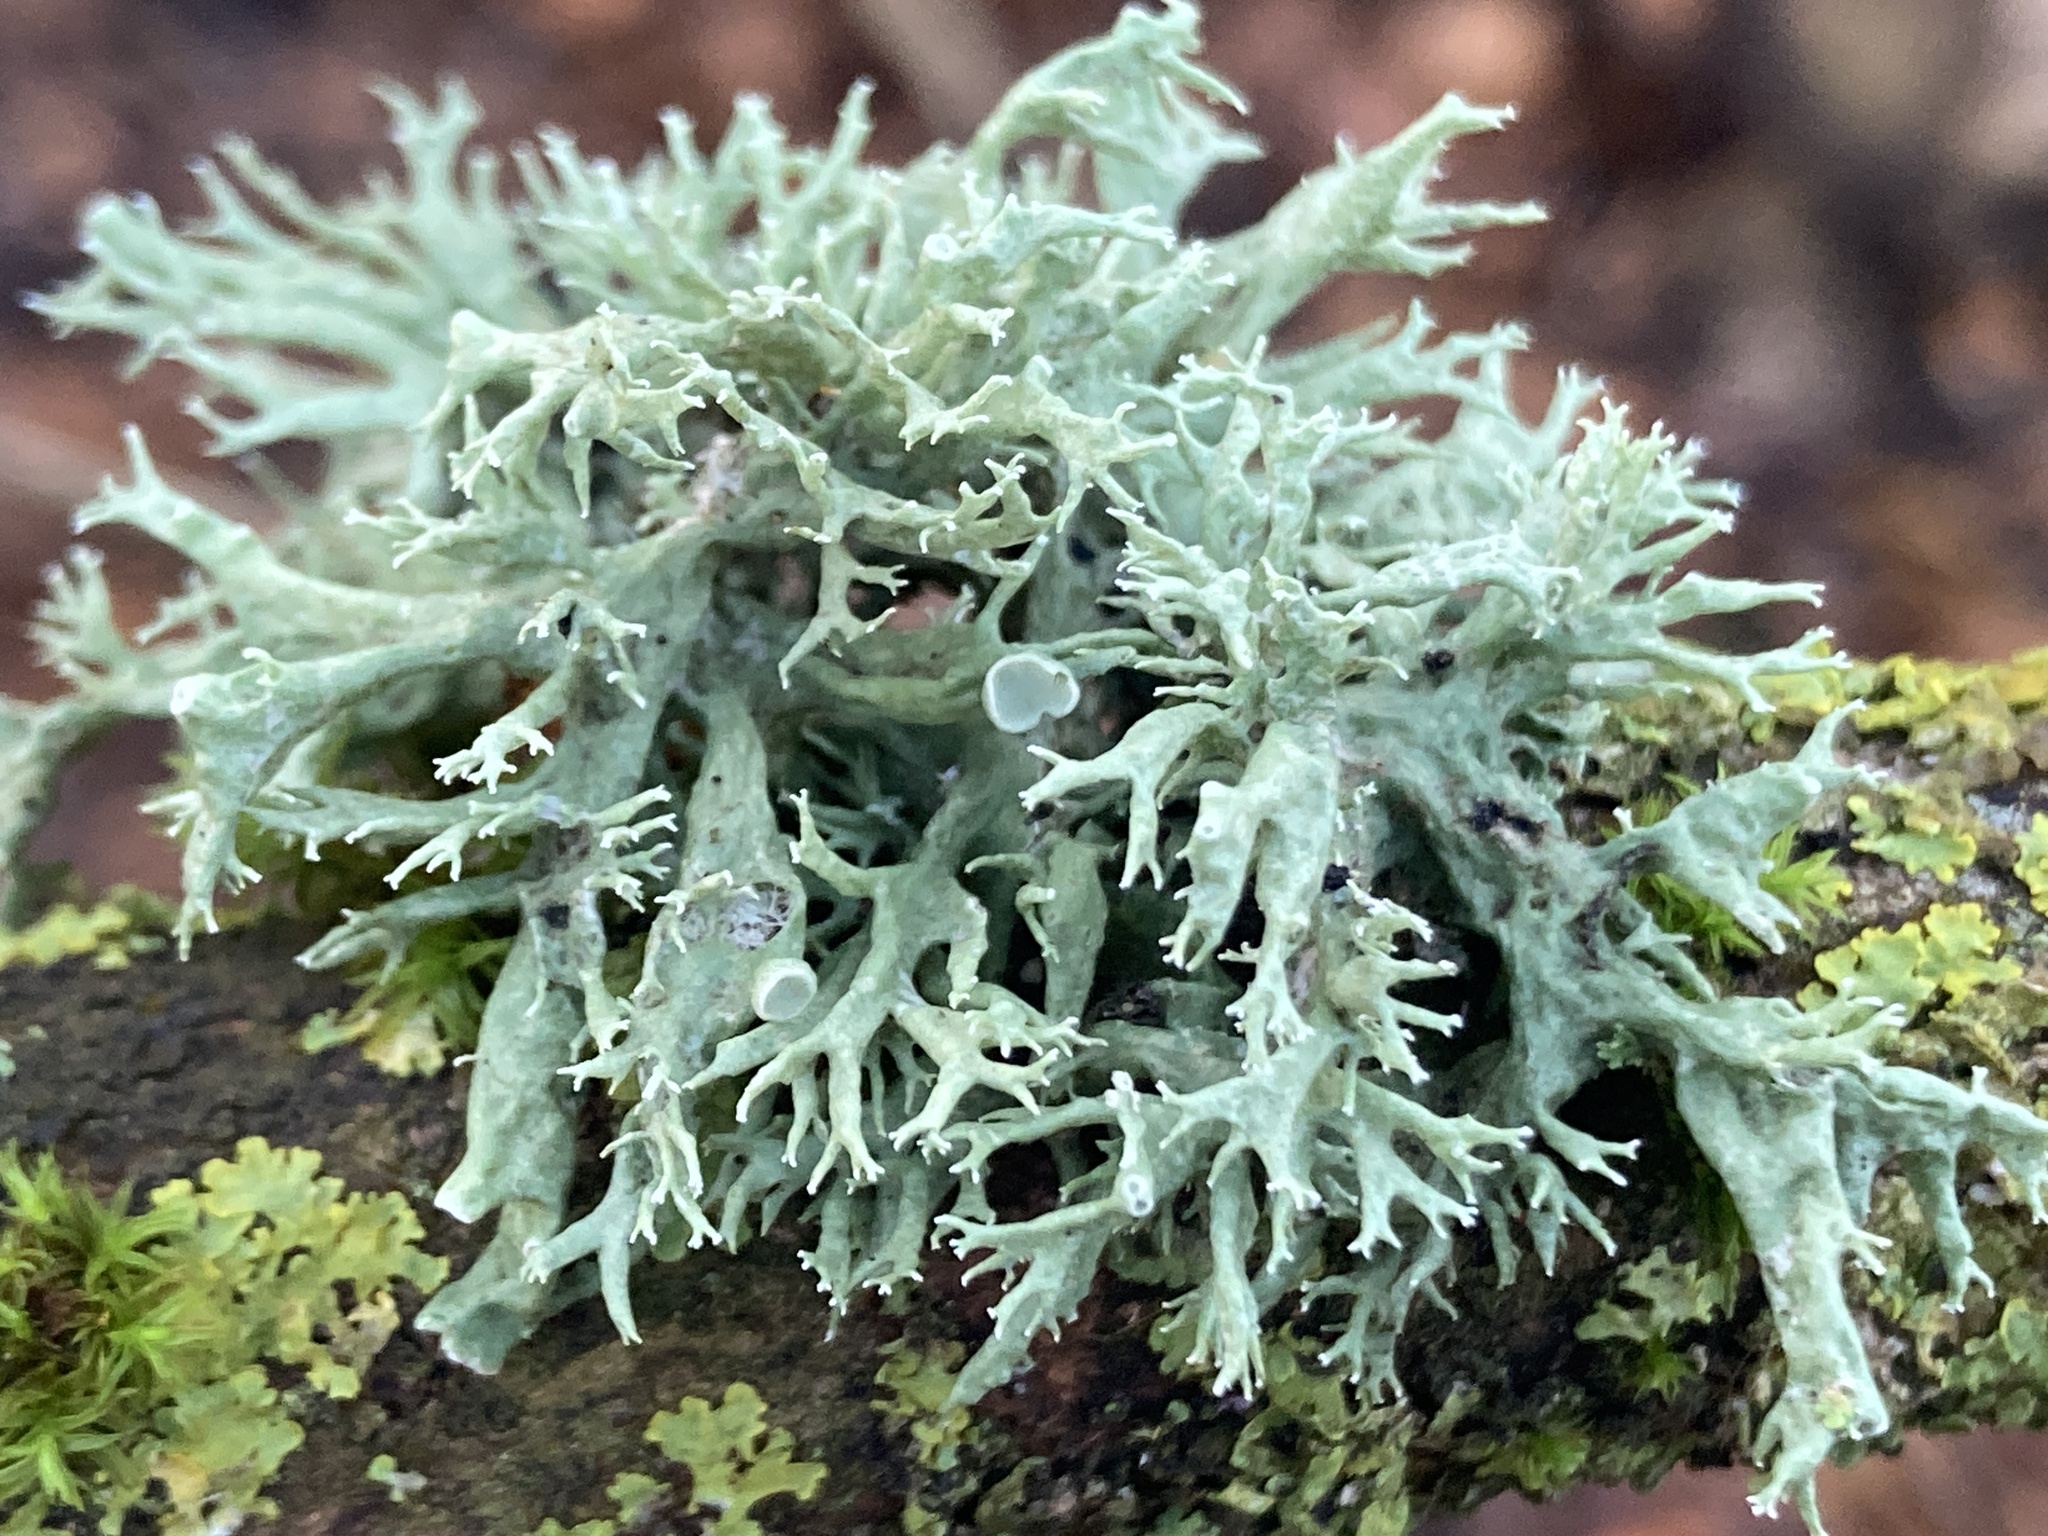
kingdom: Fungi
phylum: Ascomycota
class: Lecanoromycetes
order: Lecanorales
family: Ramalinaceae
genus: Ramalina
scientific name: Ramalina fastigiata
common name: Dotted ribbon lichen
